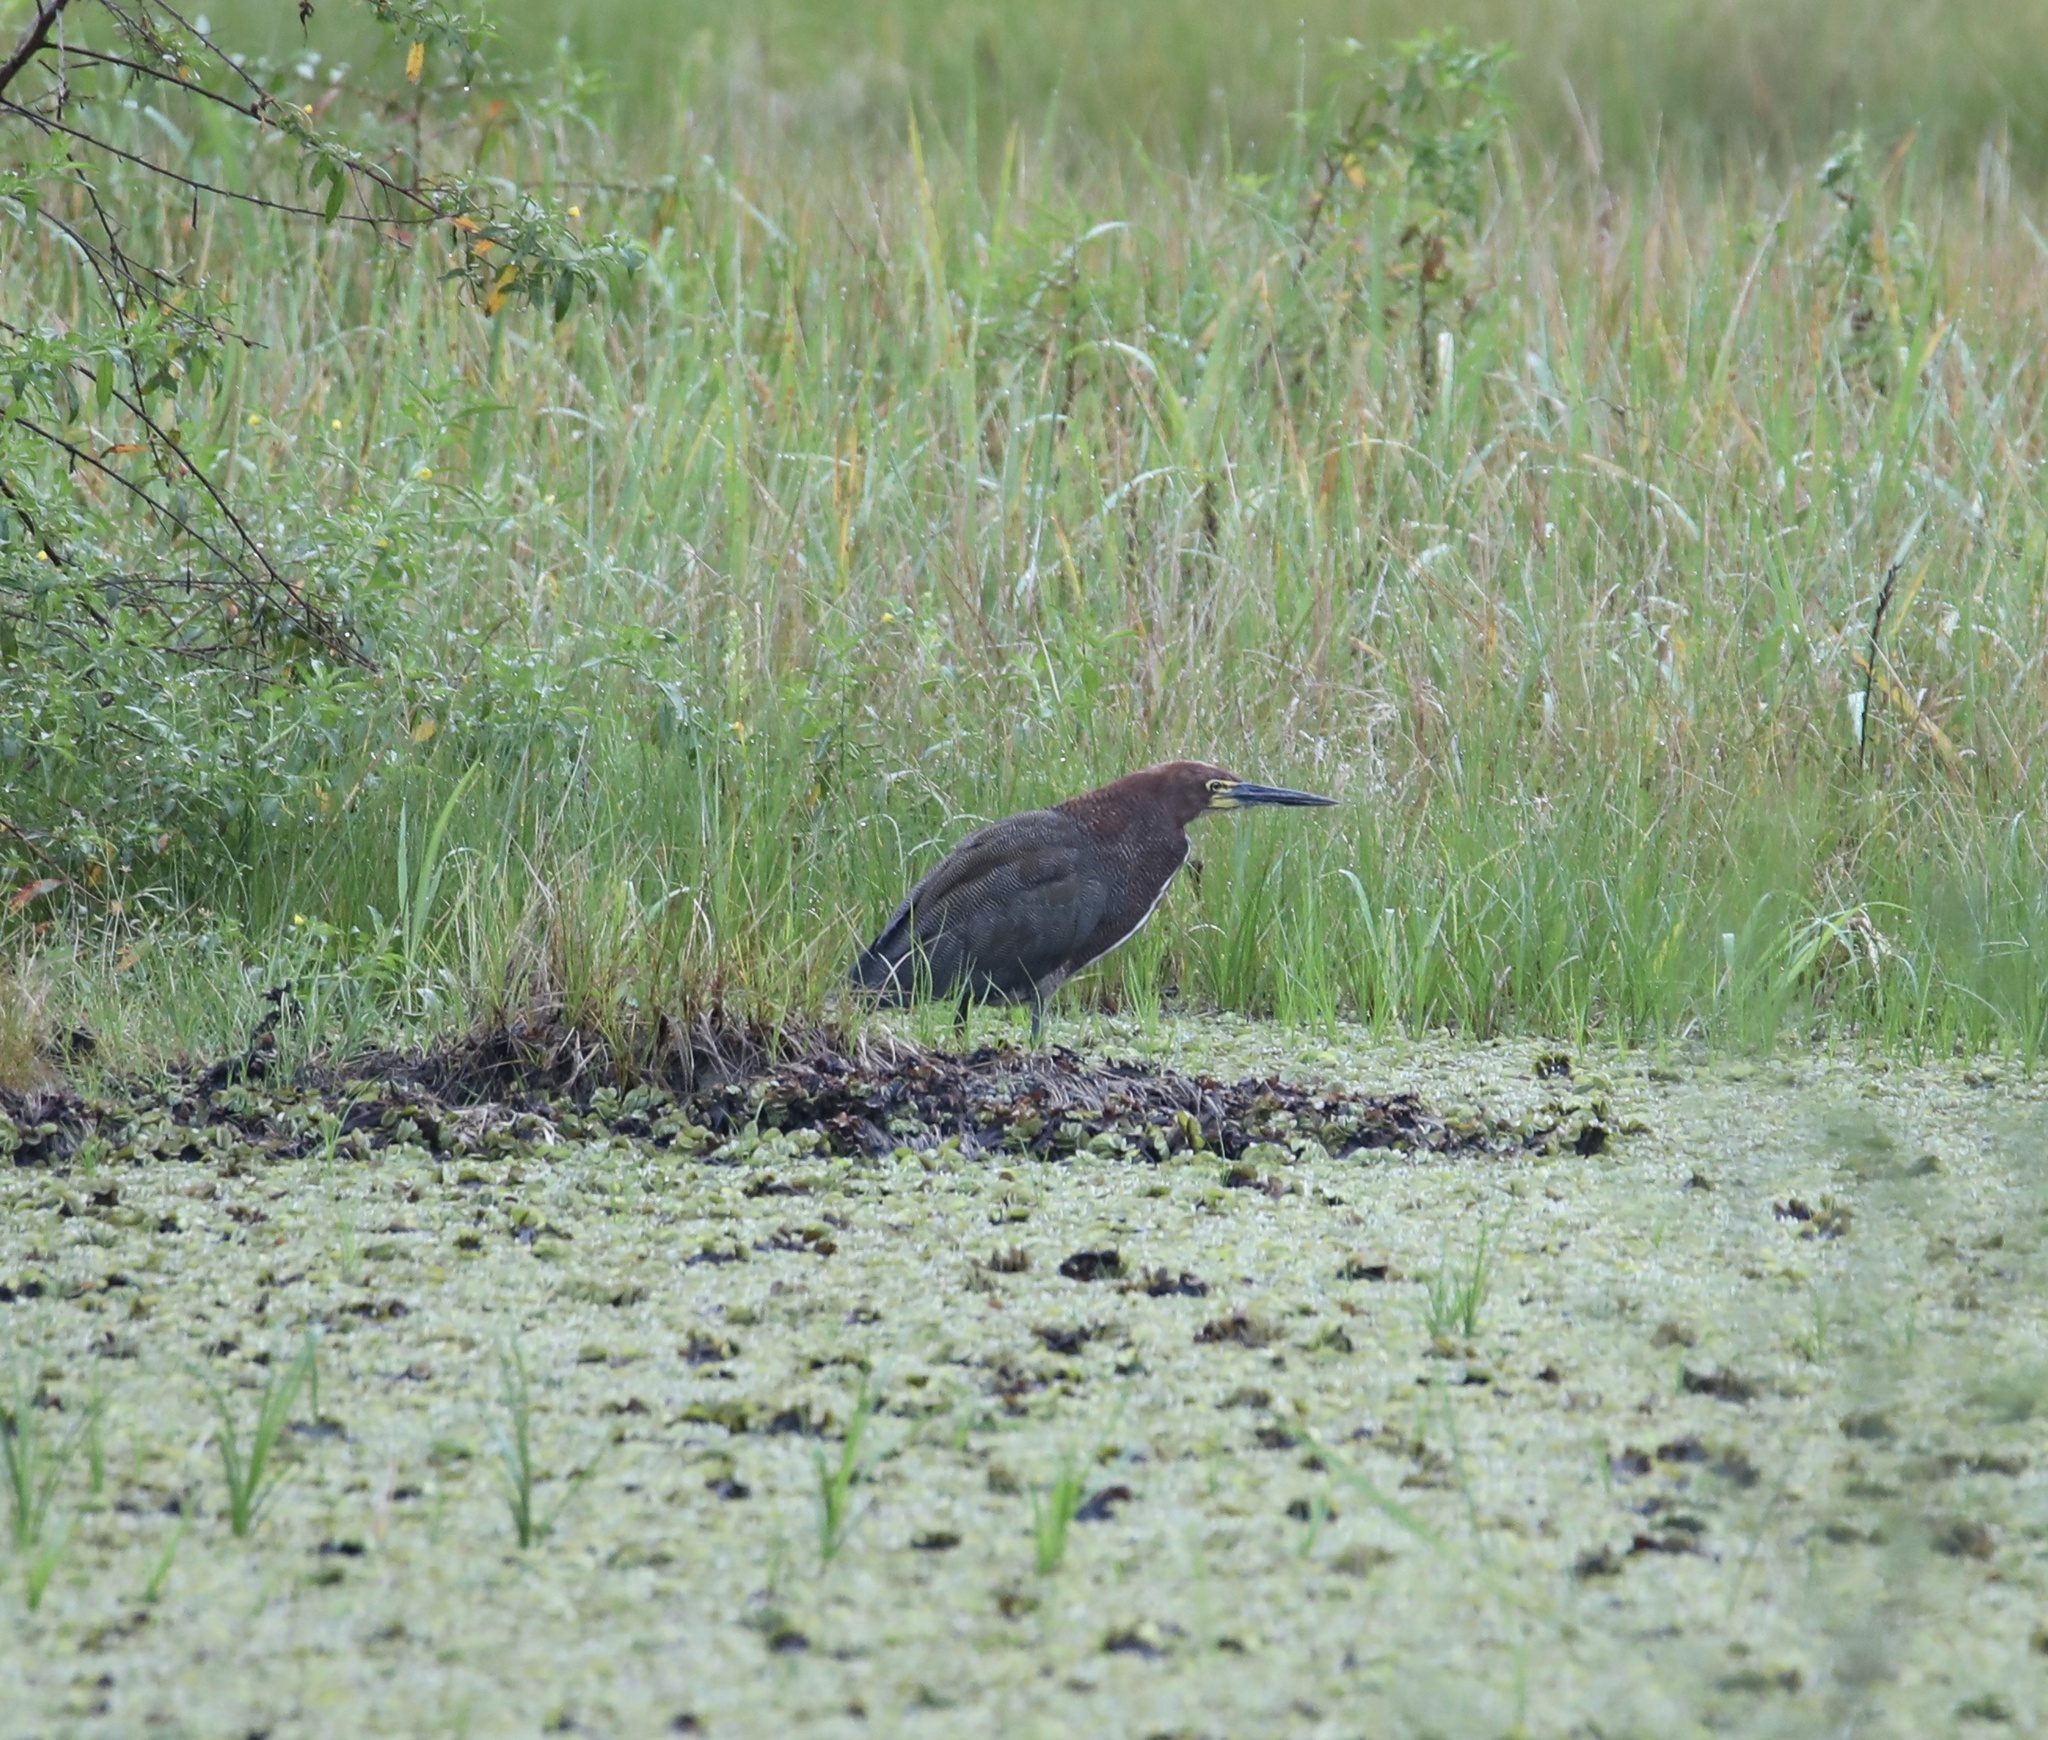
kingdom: Animalia
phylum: Chordata
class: Aves
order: Pelecaniformes
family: Ardeidae
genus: Tigrisoma
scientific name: Tigrisoma lineatum
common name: Rufescent tiger-heron
